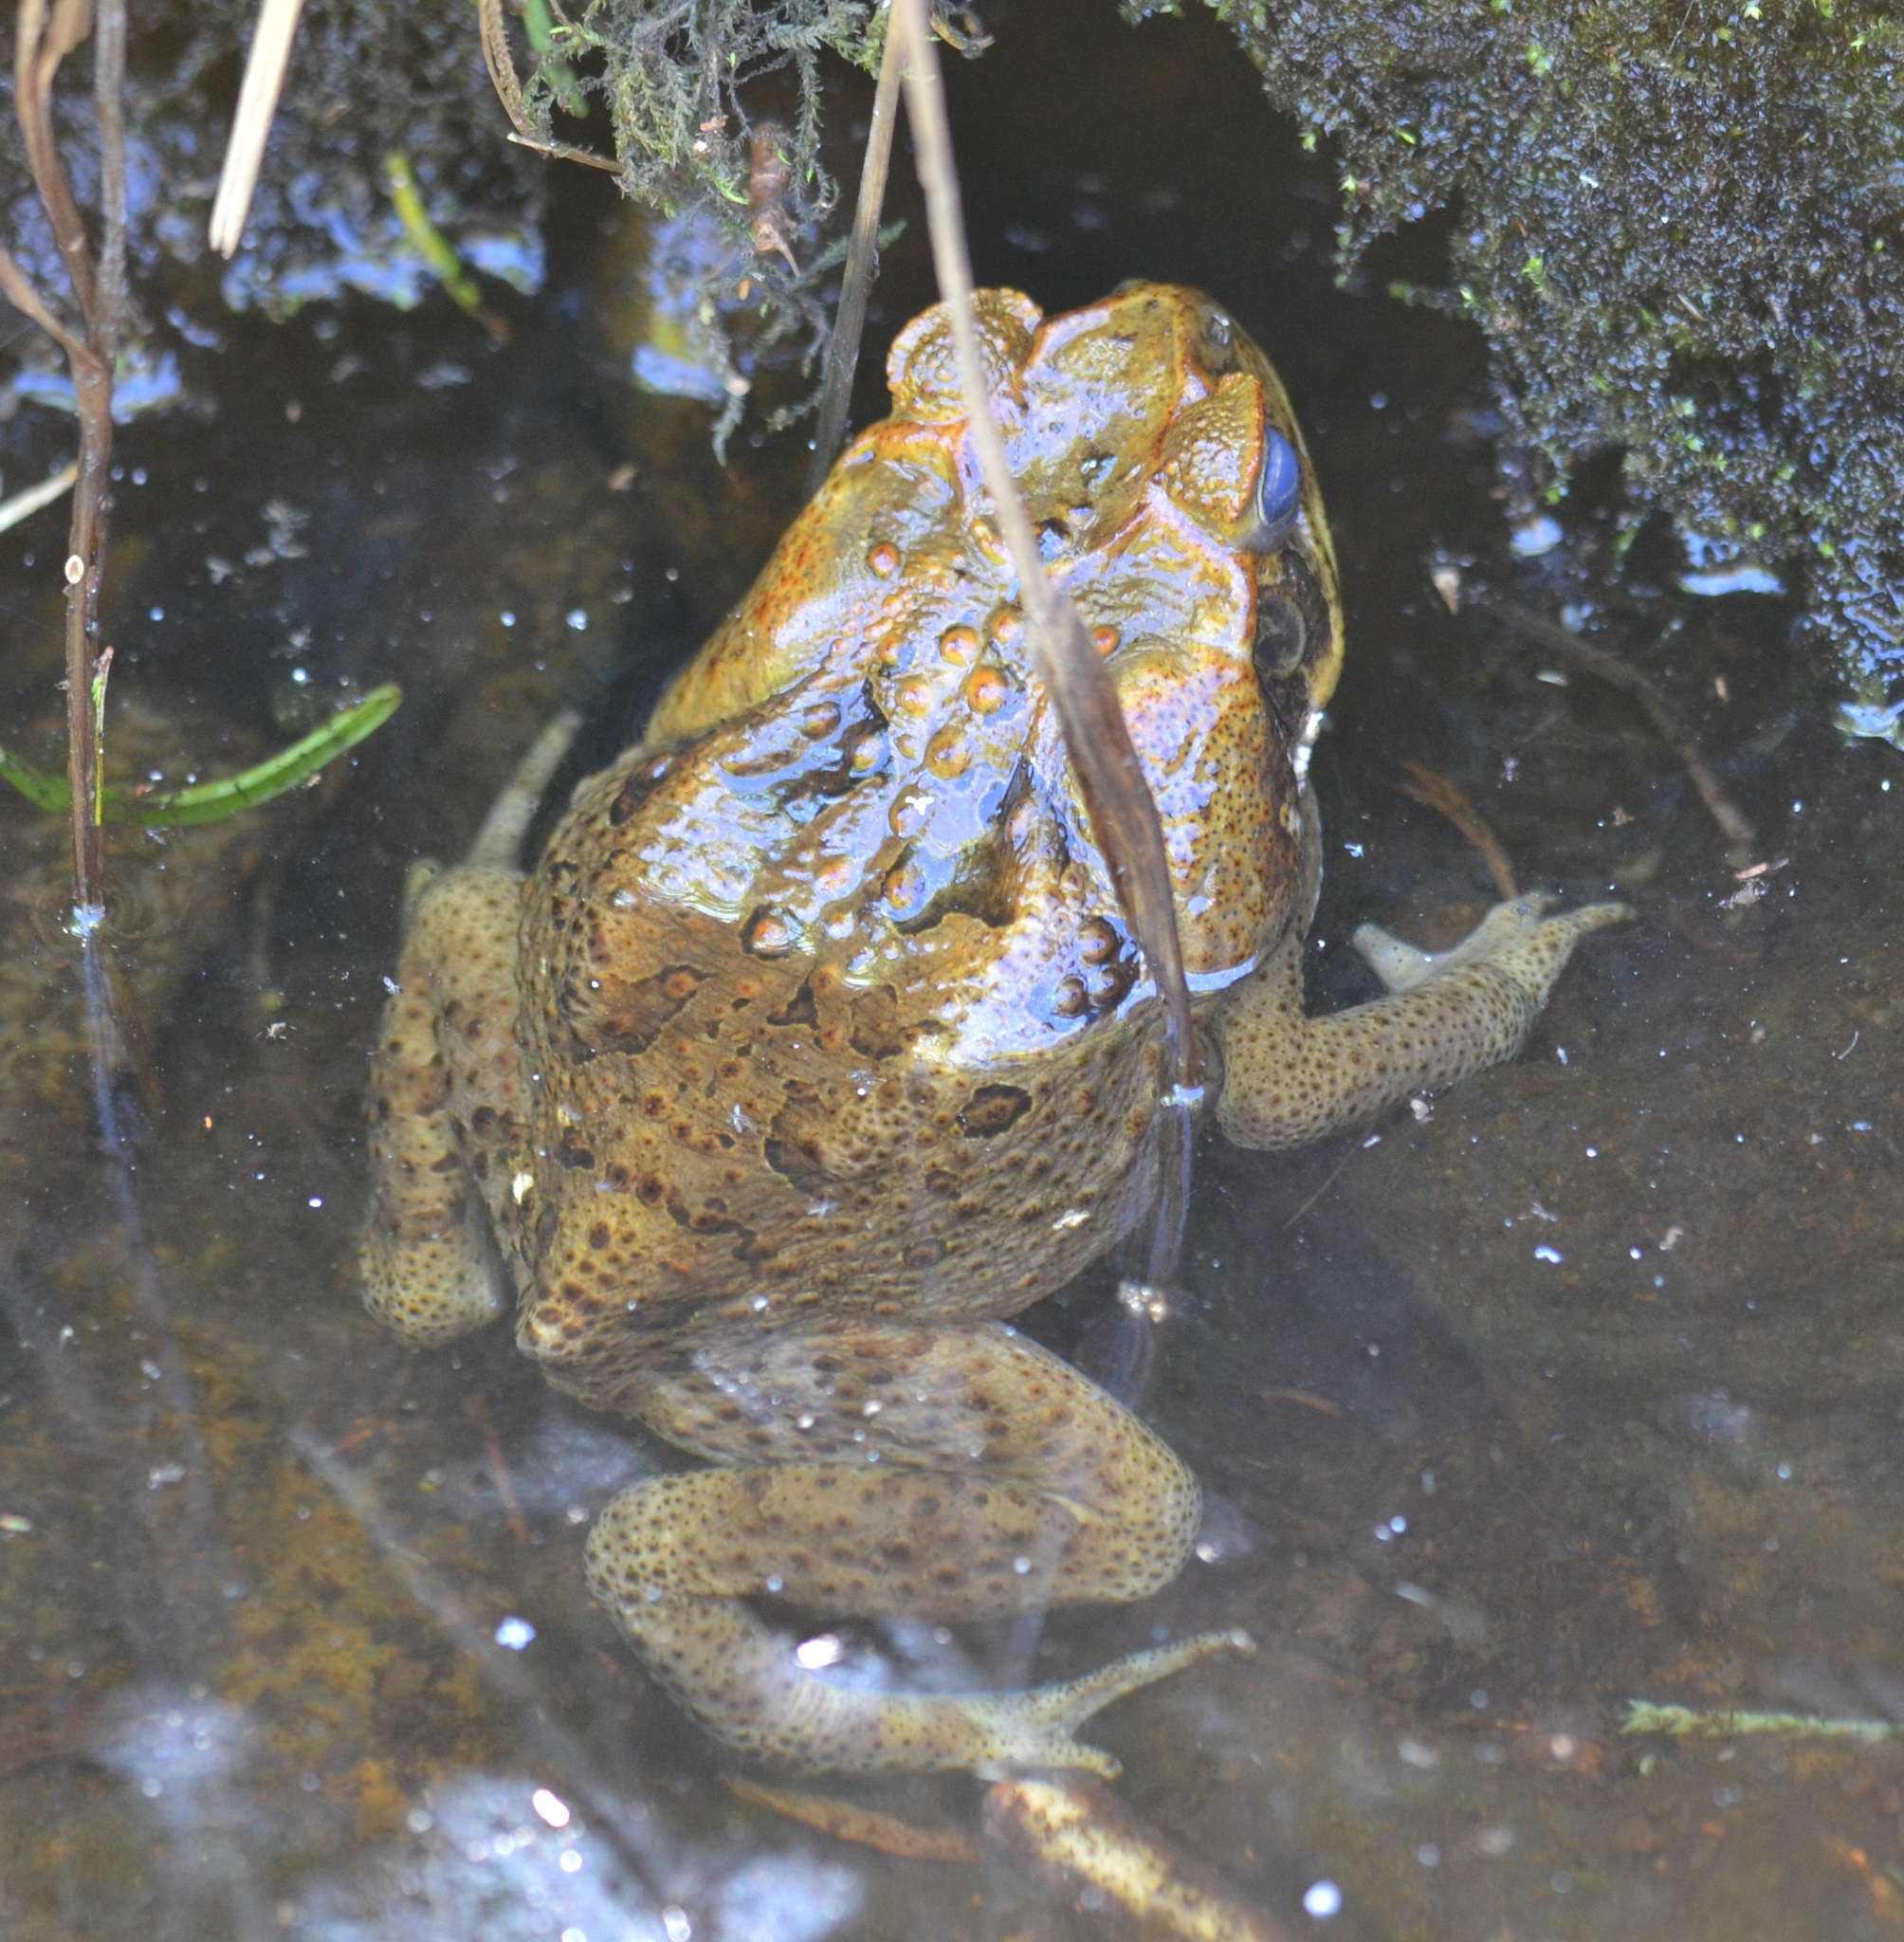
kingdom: Animalia
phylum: Chordata
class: Amphibia
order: Anura
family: Bufonidae
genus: Rhinella
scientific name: Rhinella marina
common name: Cane toad
